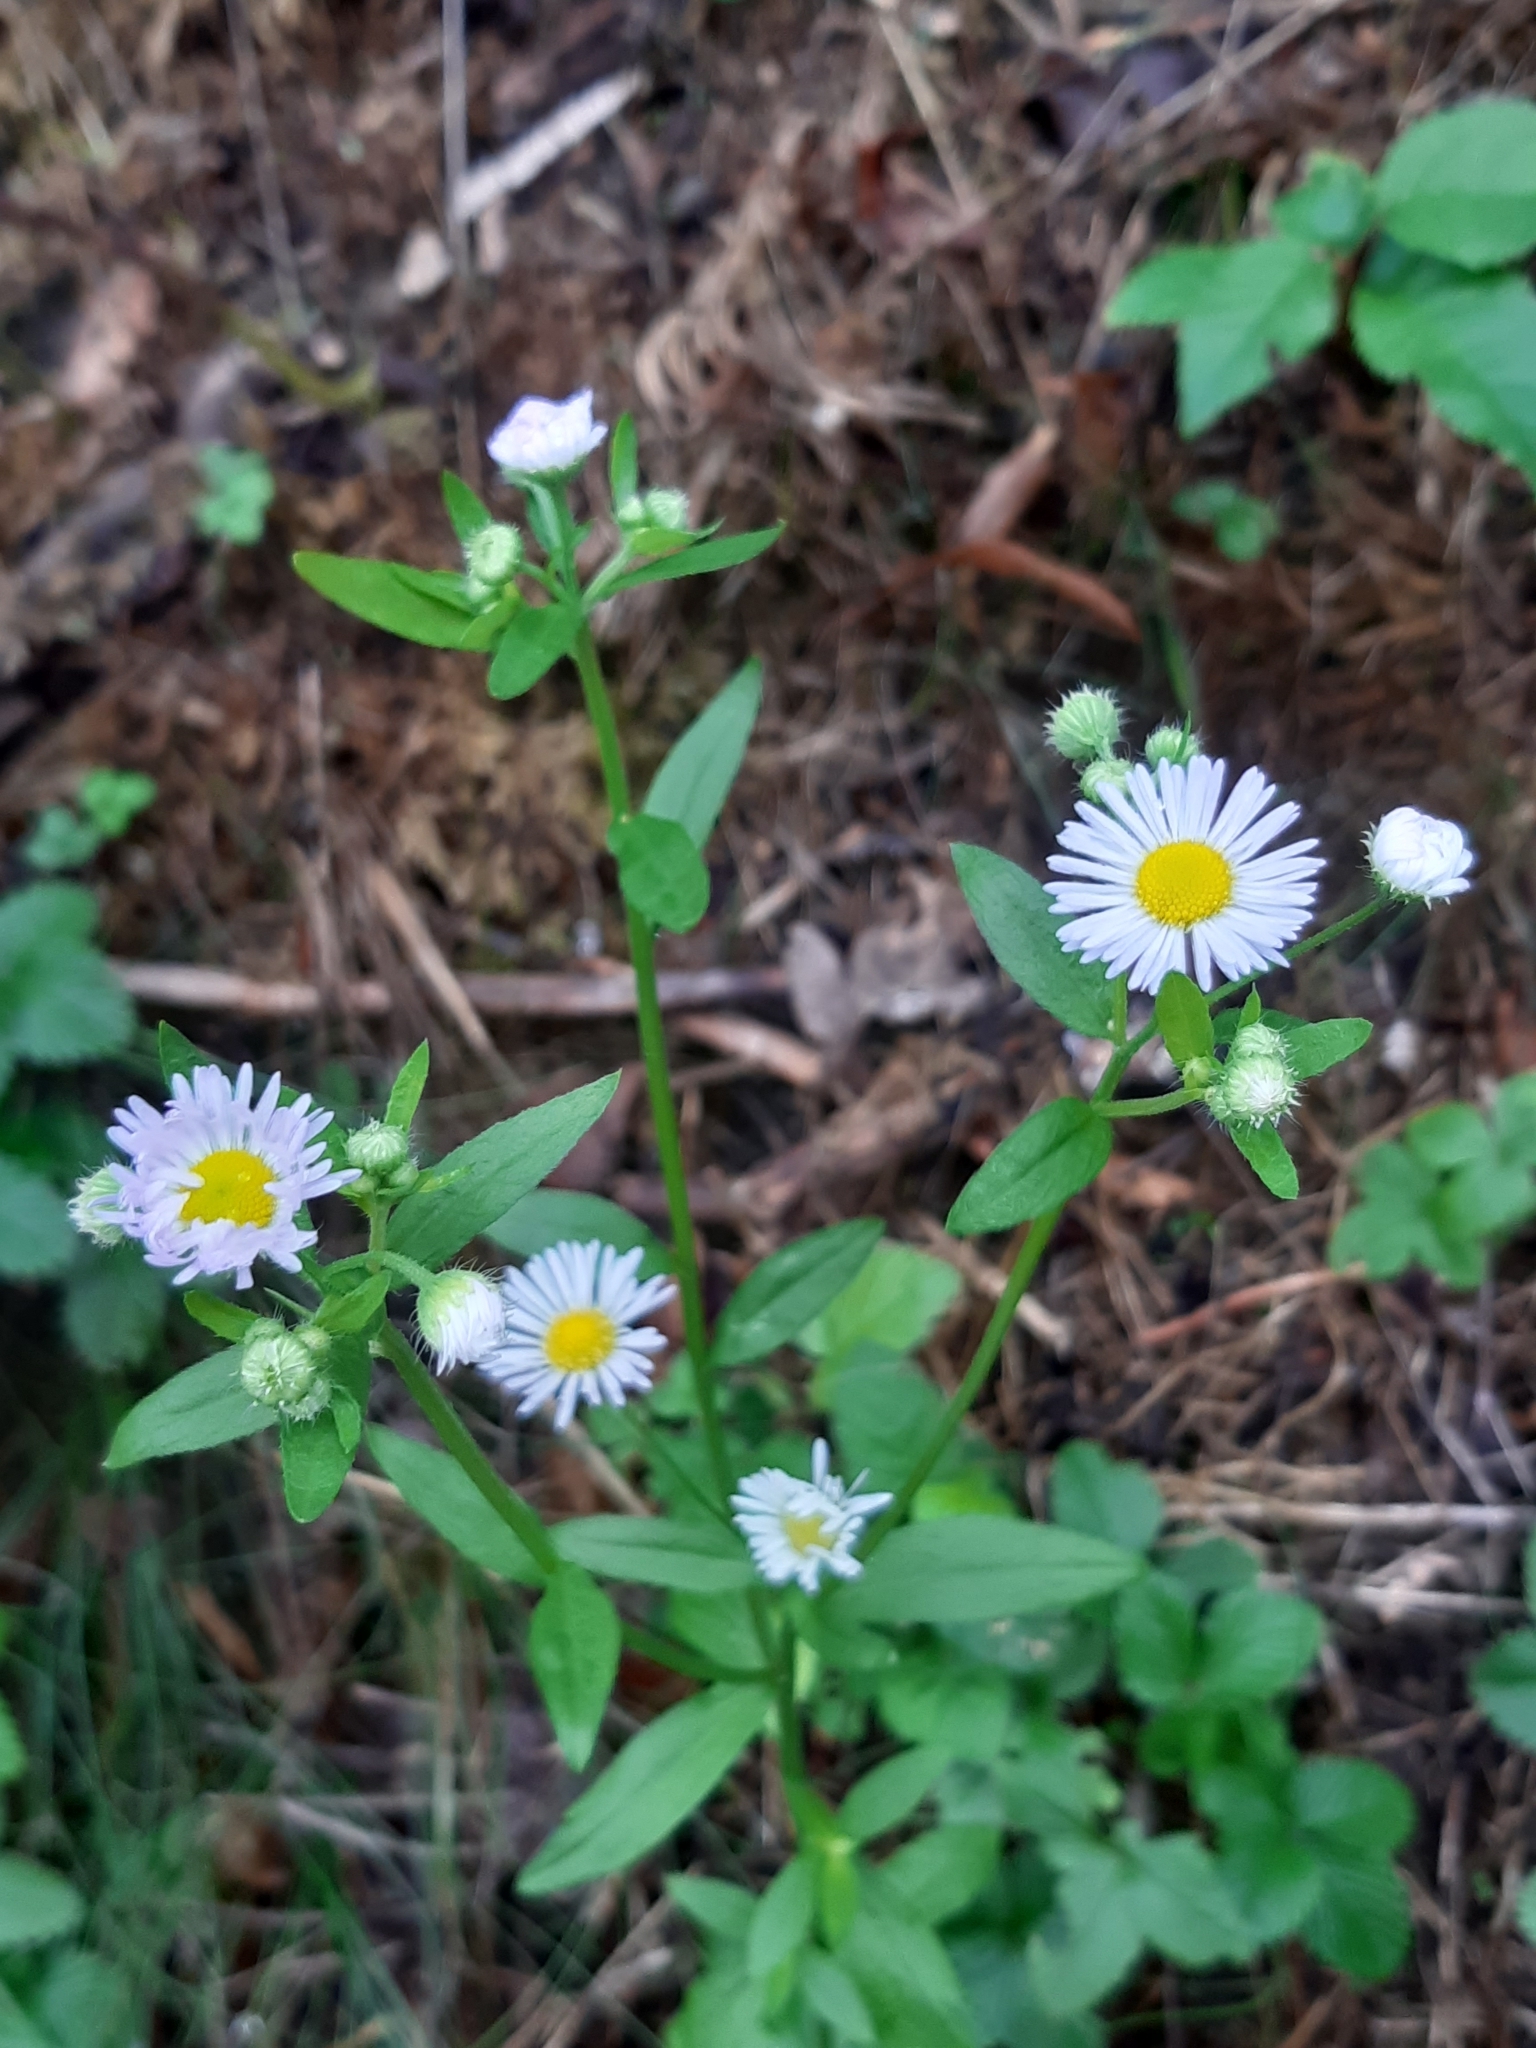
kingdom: Plantae
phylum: Tracheophyta
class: Magnoliopsida
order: Asterales
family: Asteraceae
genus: Erigeron
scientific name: Erigeron annuus
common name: Tall fleabane
